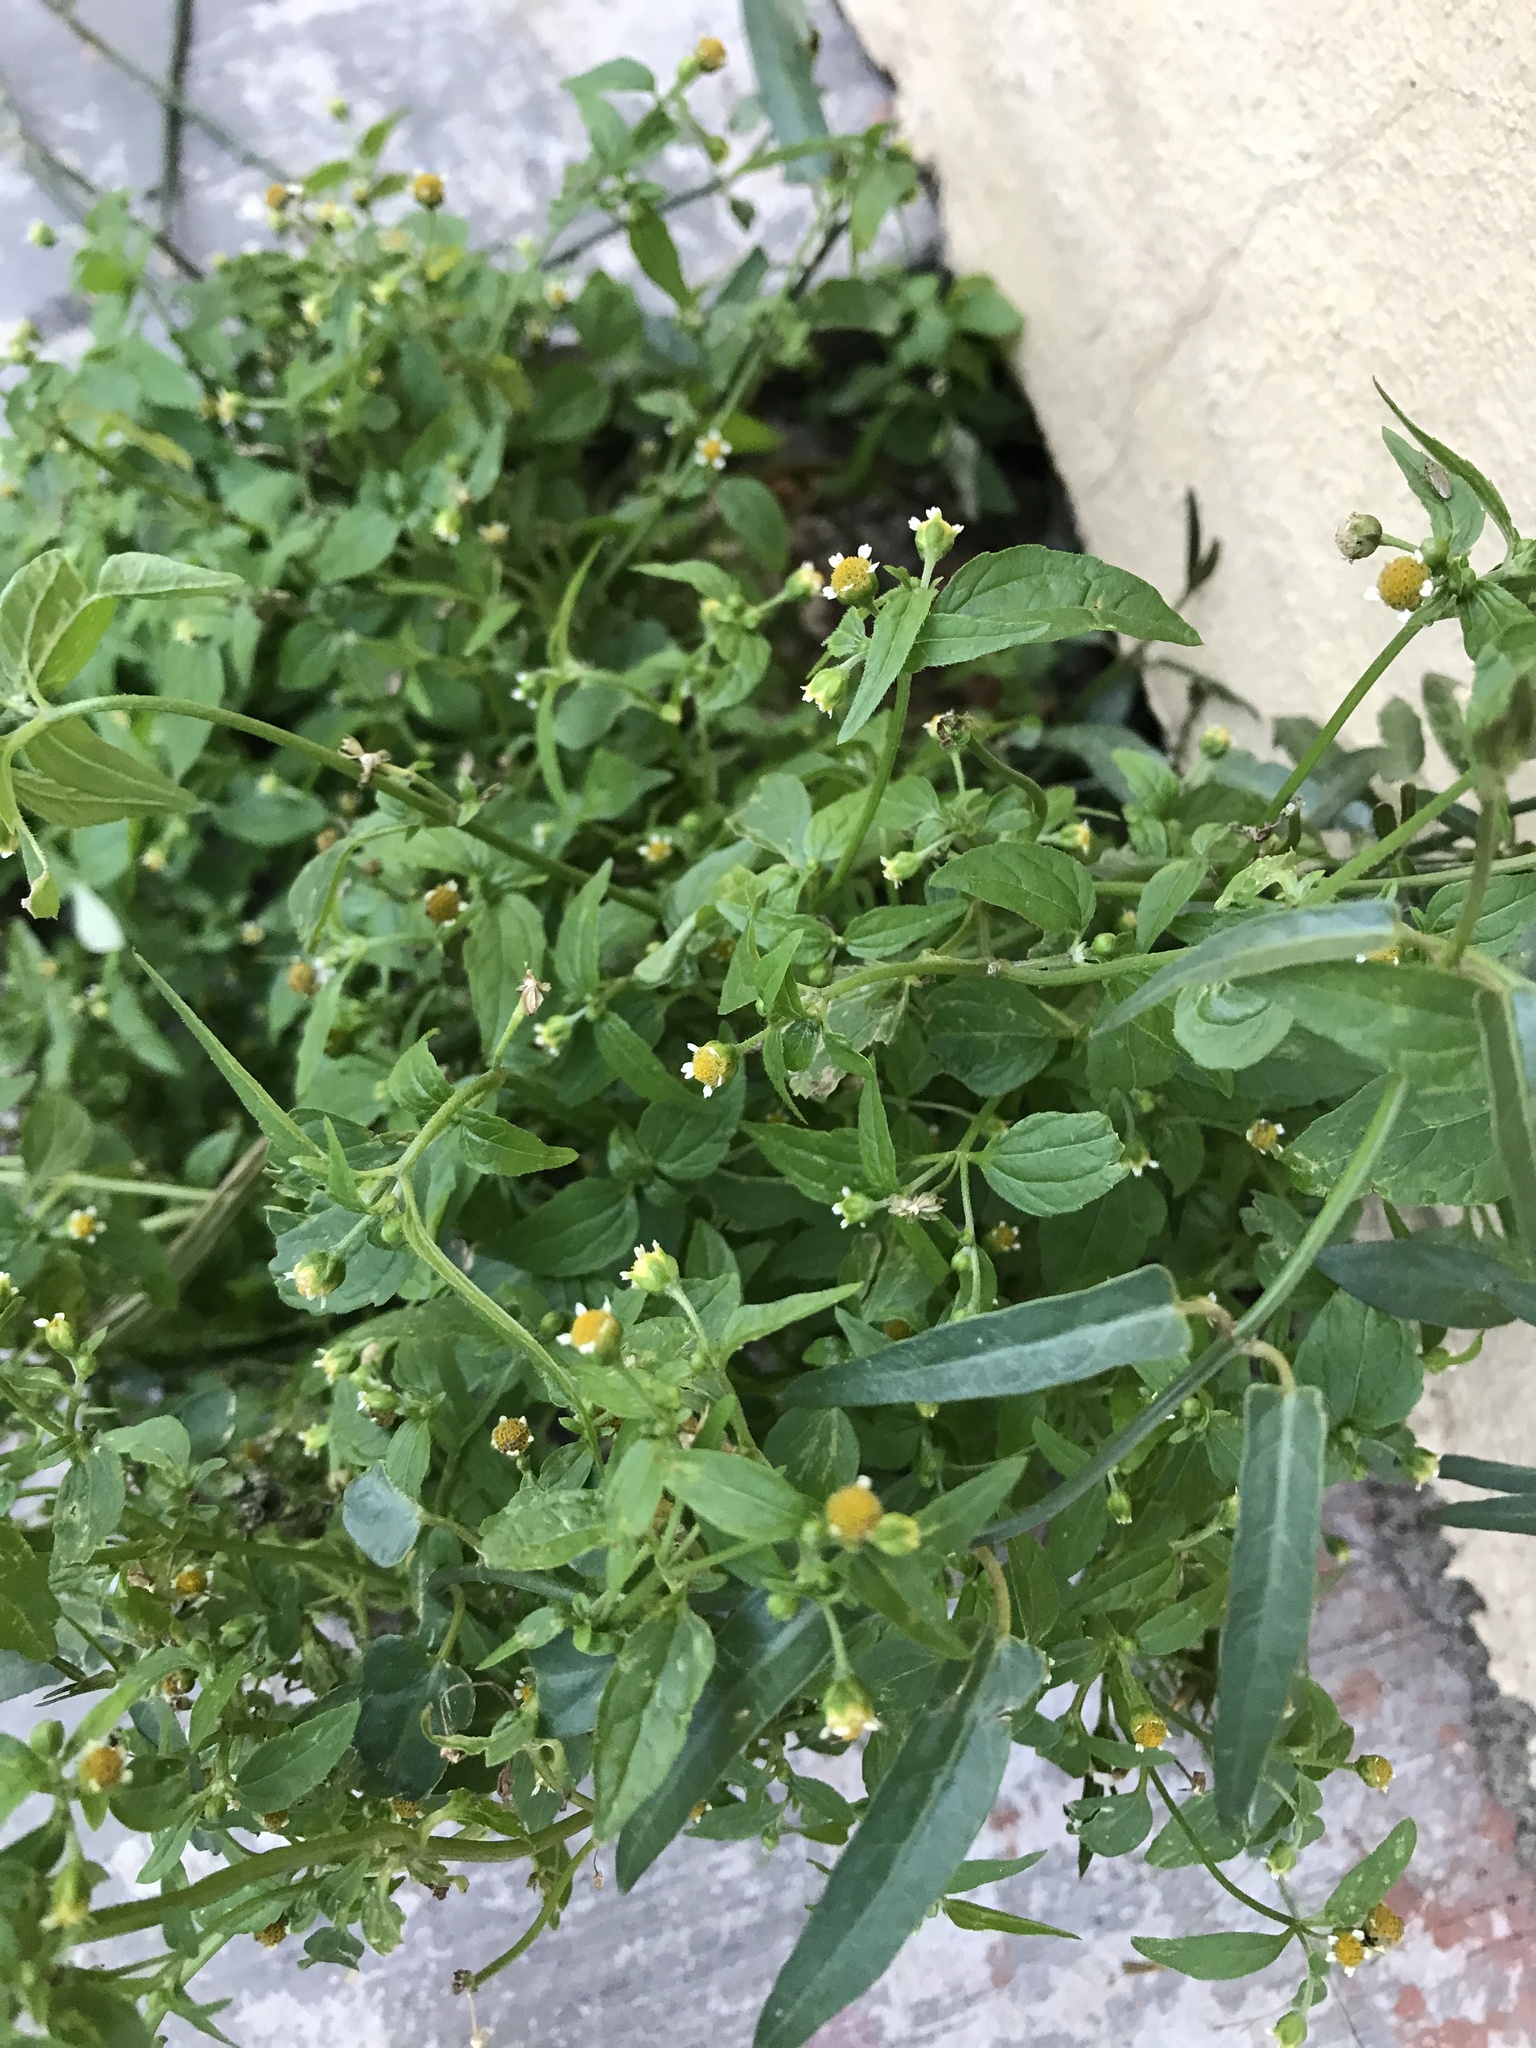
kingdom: Plantae
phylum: Tracheophyta
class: Magnoliopsida
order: Asterales
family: Asteraceae
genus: Galinsoga
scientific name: Galinsoga parviflora
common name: Gallant soldier
